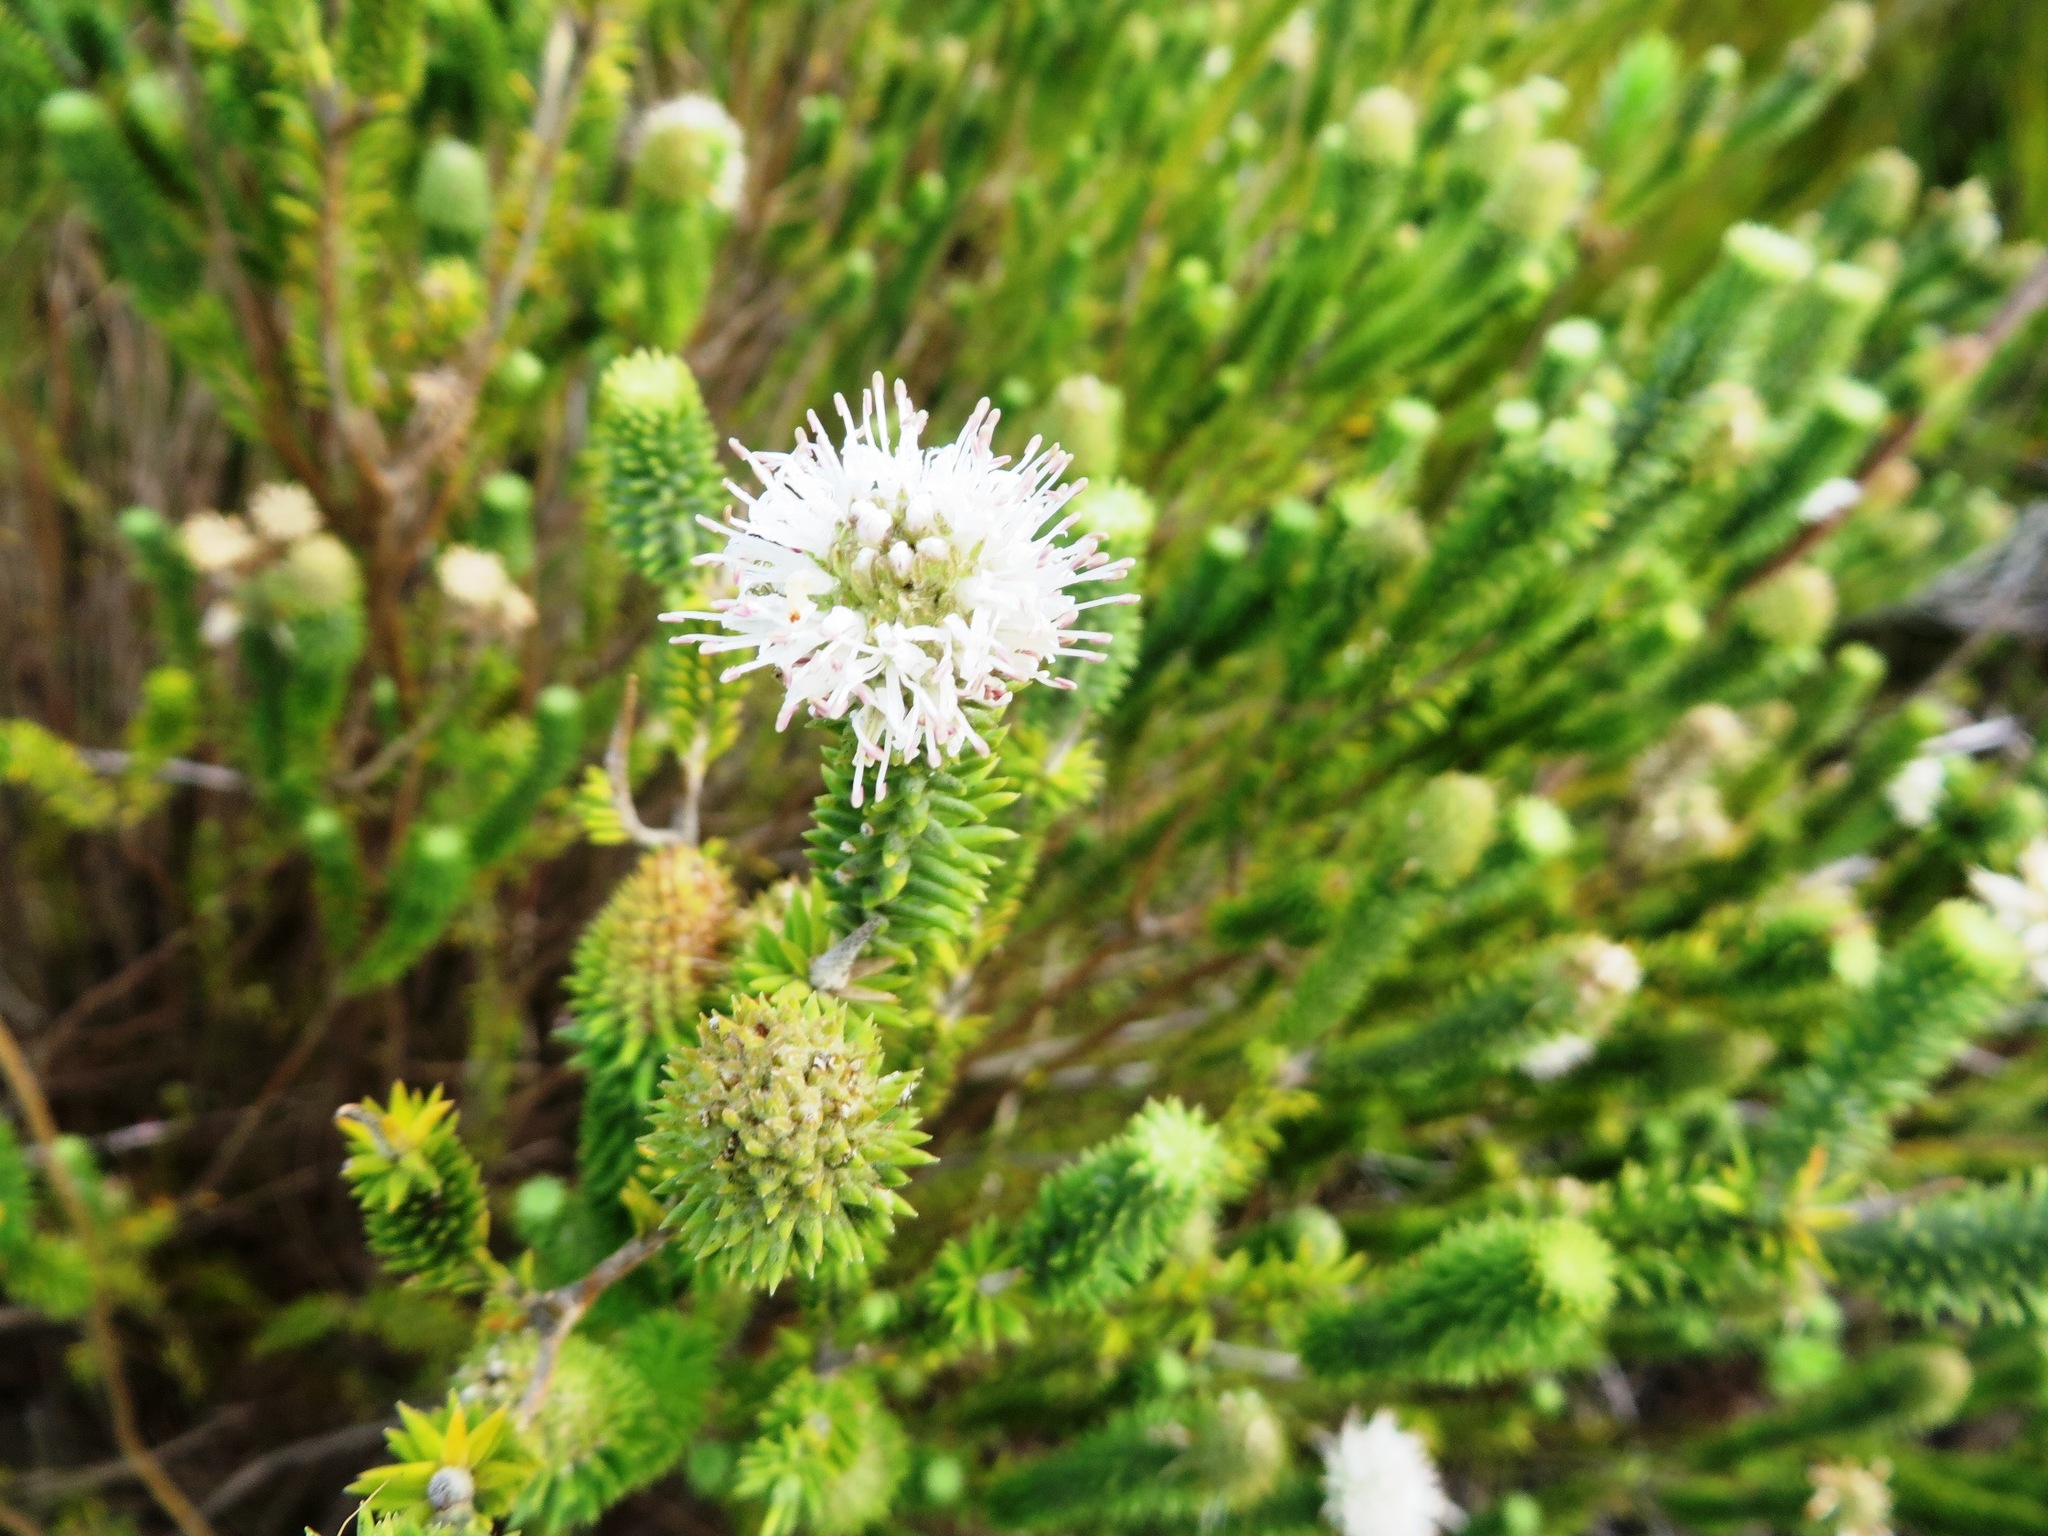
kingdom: Plantae
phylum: Tracheophyta
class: Magnoliopsida
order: Lamiales
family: Stilbaceae
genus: Stilbe
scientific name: Stilbe albiflora
